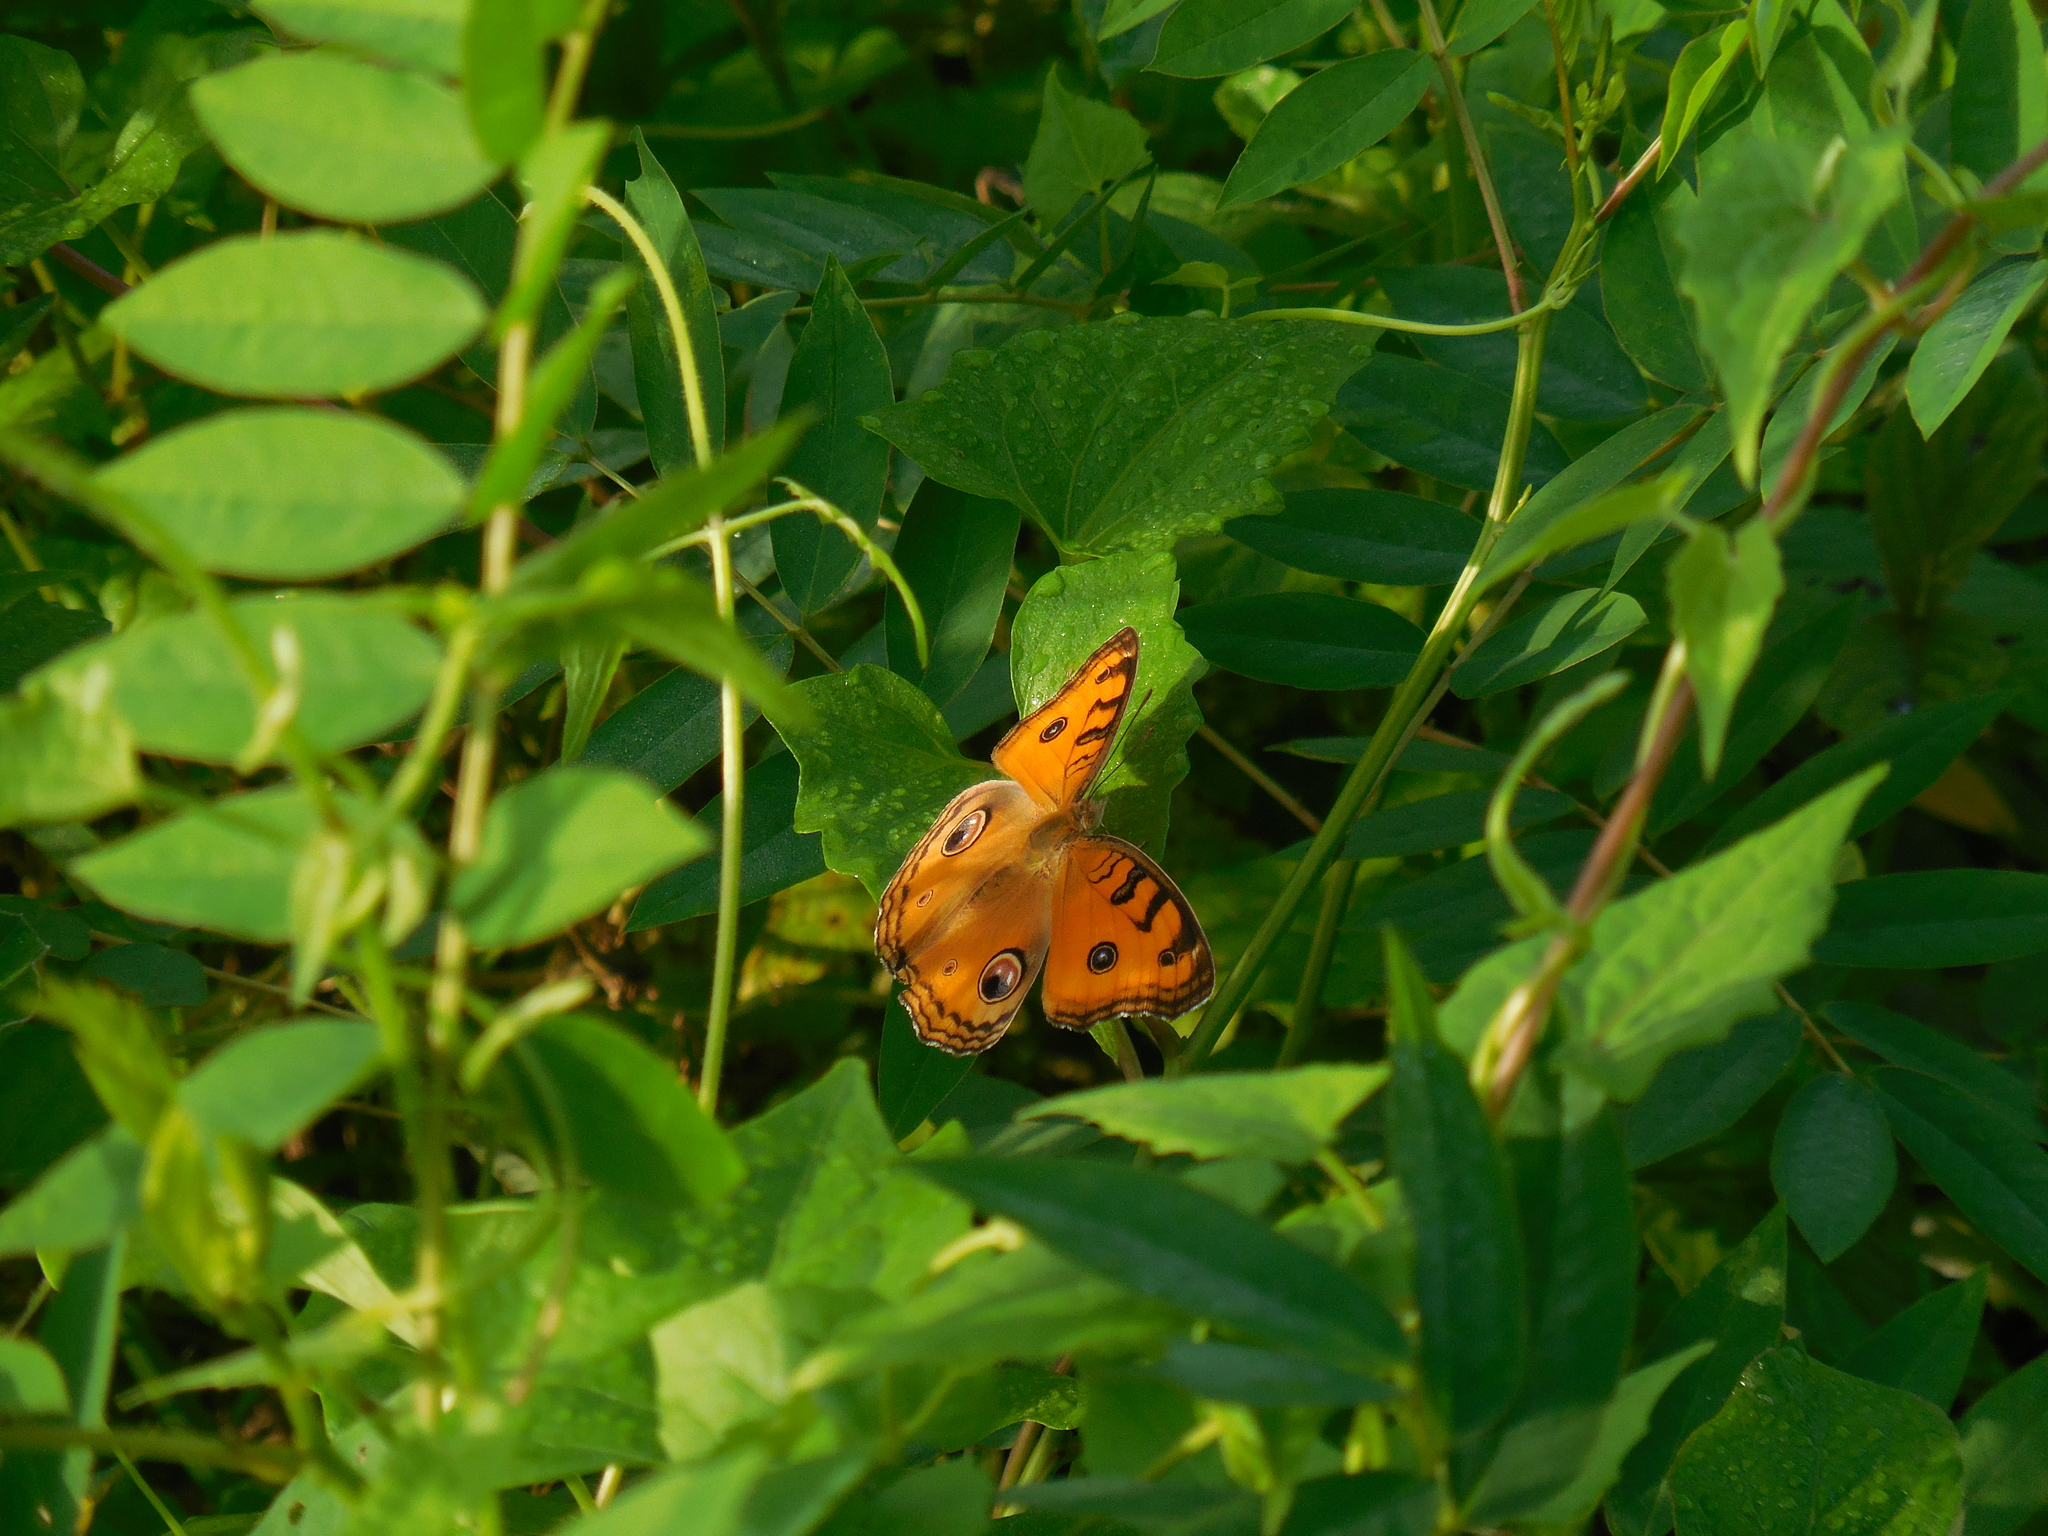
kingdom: Animalia
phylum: Arthropoda
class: Insecta
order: Lepidoptera
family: Nymphalidae
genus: Junonia
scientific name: Junonia almana
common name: Peacock pansy
